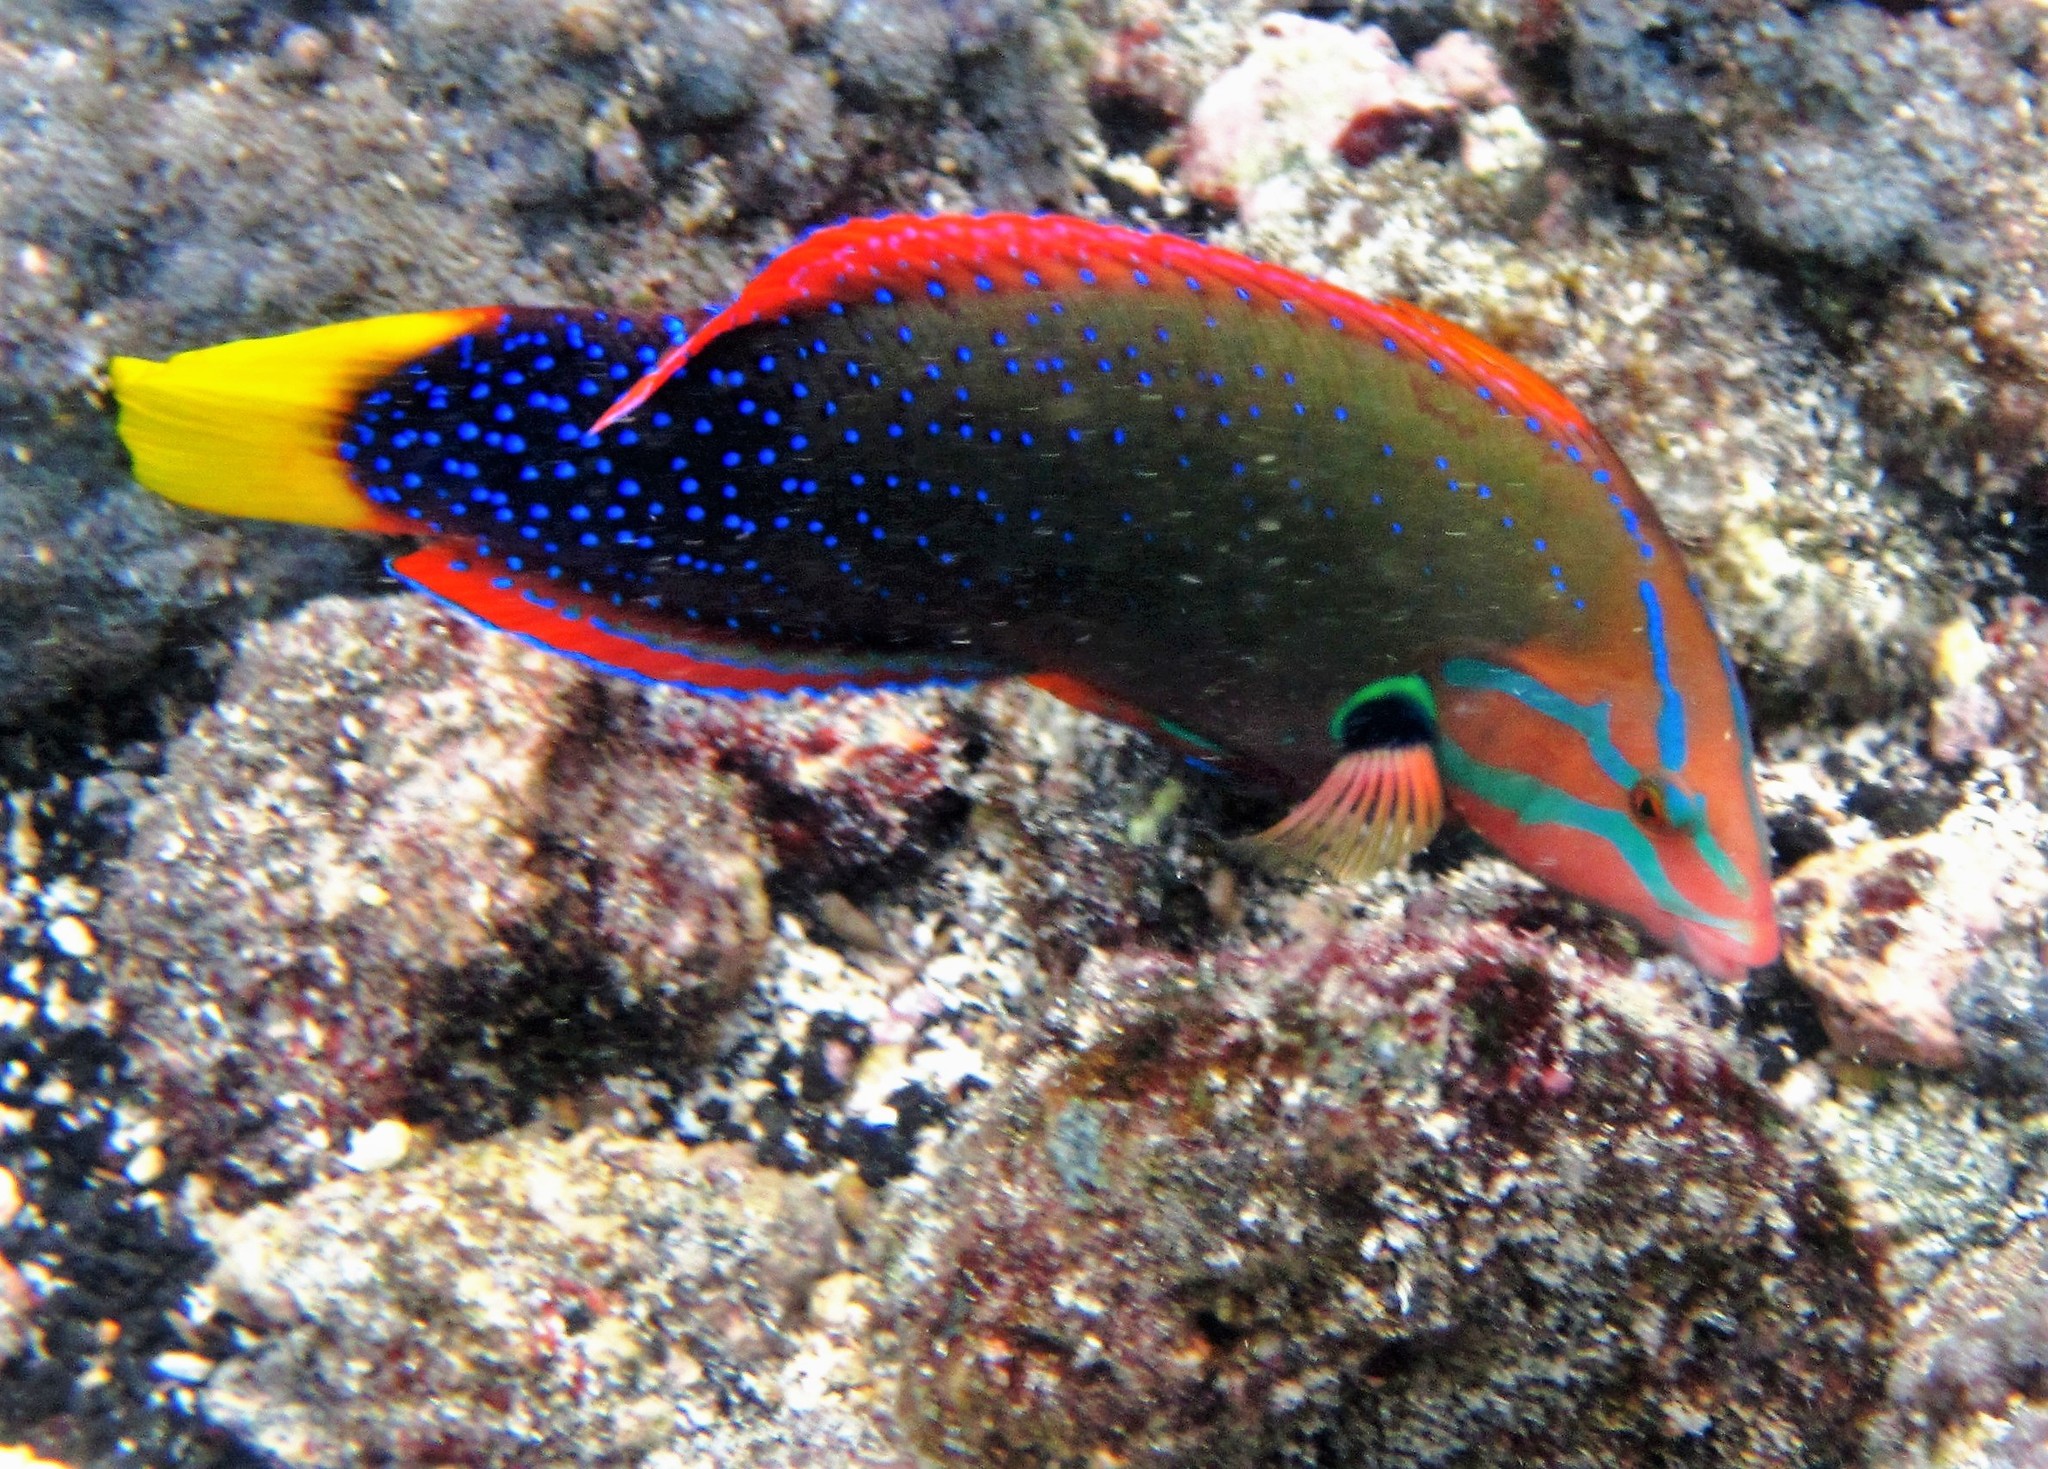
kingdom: Animalia
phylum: Chordata
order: Perciformes
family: Labridae
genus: Coris
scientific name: Coris gaimard
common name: Yellowtail coris
